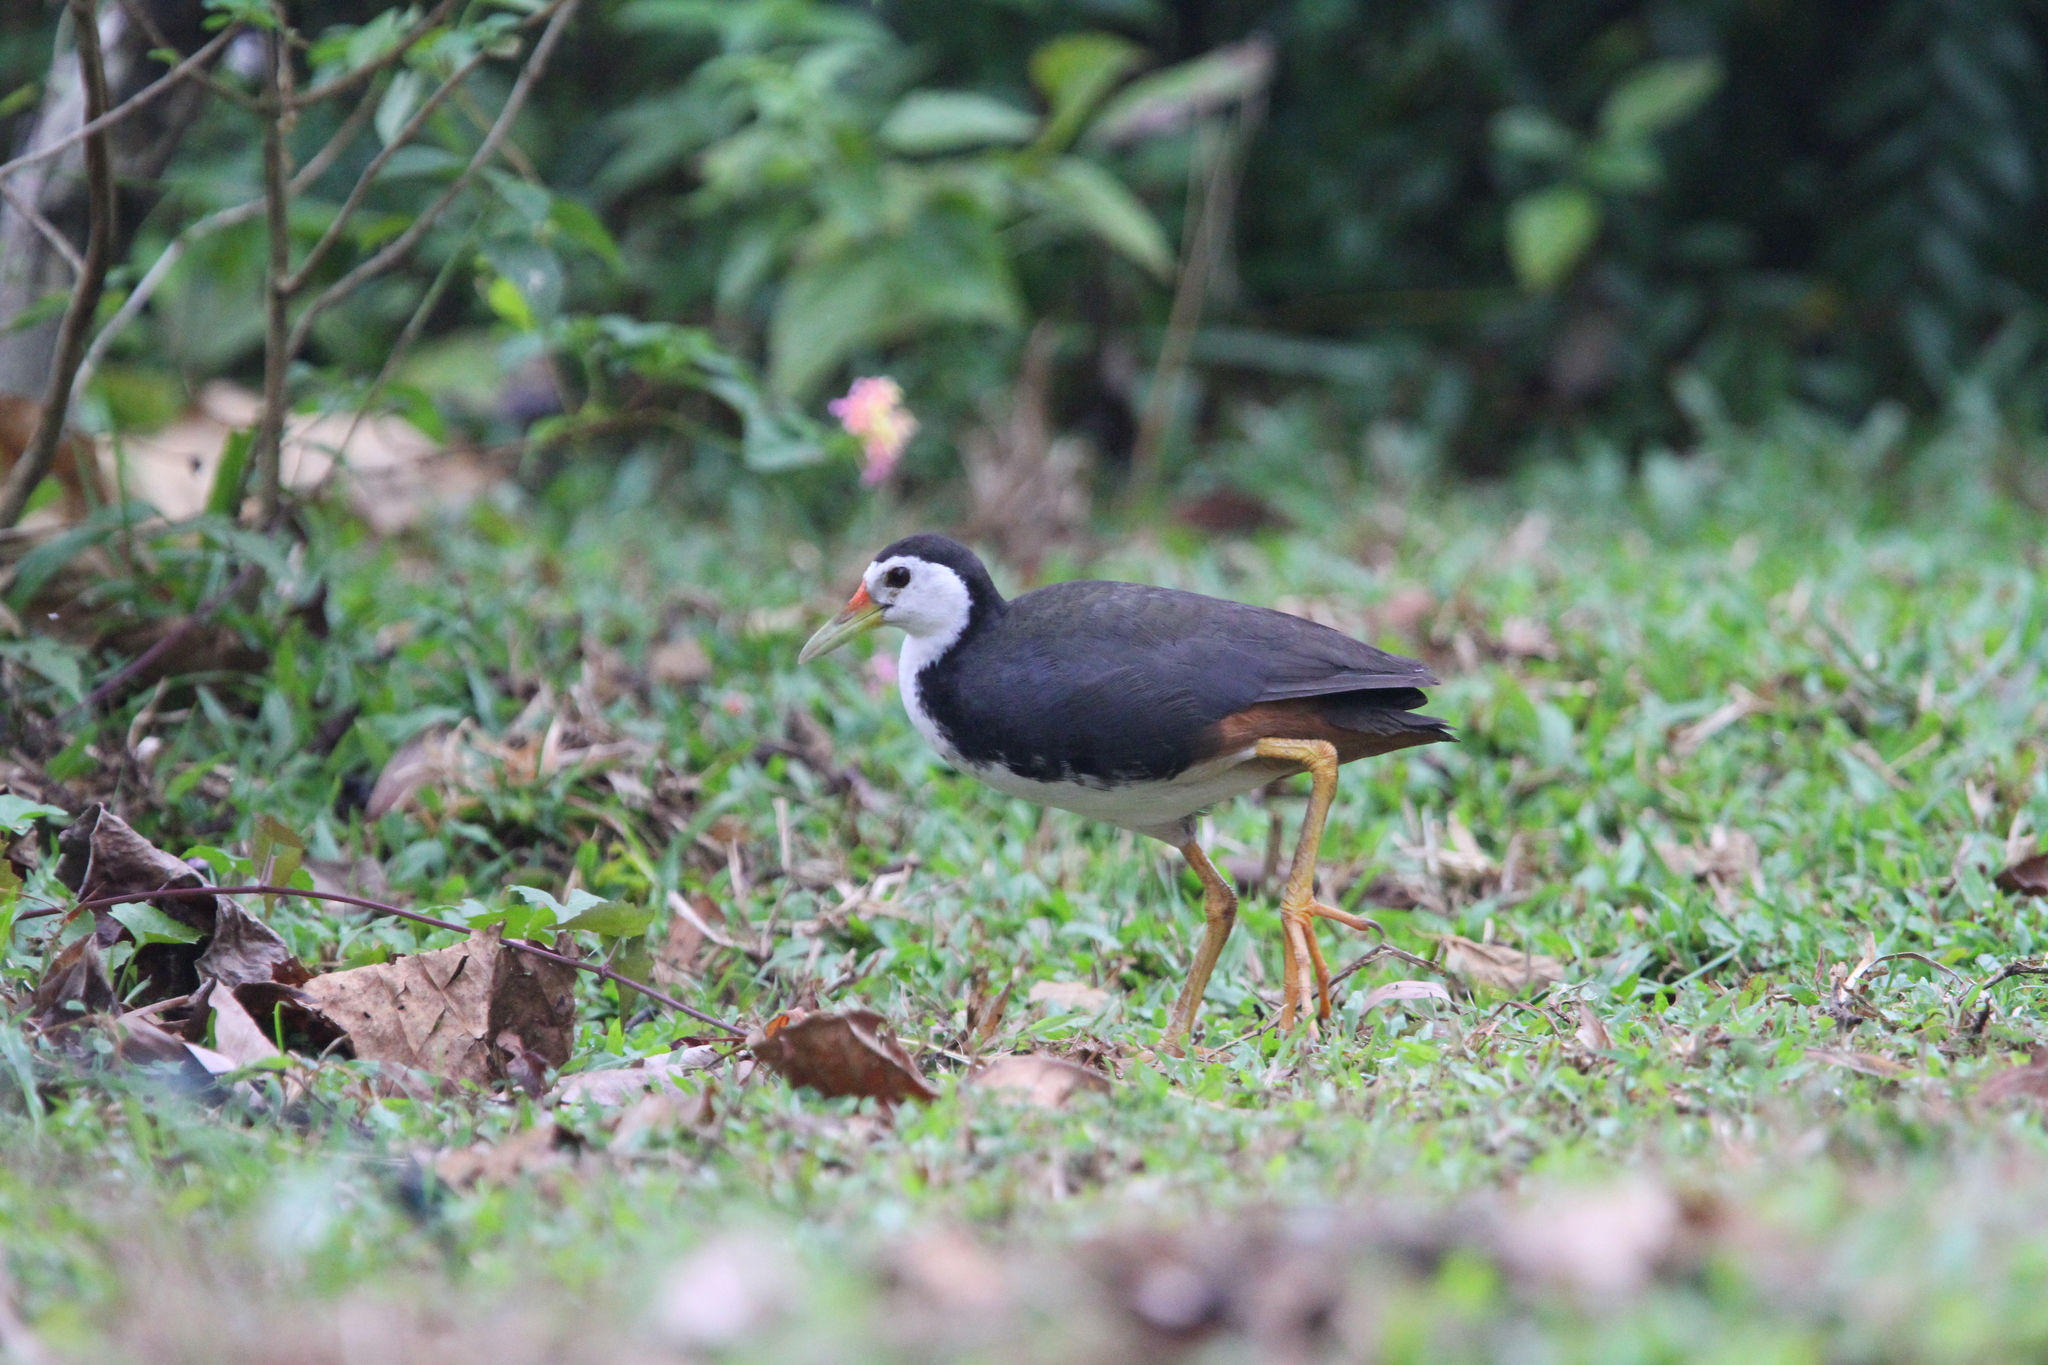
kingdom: Animalia
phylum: Chordata
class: Aves
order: Gruiformes
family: Rallidae
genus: Amaurornis
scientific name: Amaurornis phoenicurus
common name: White-breasted waterhen
